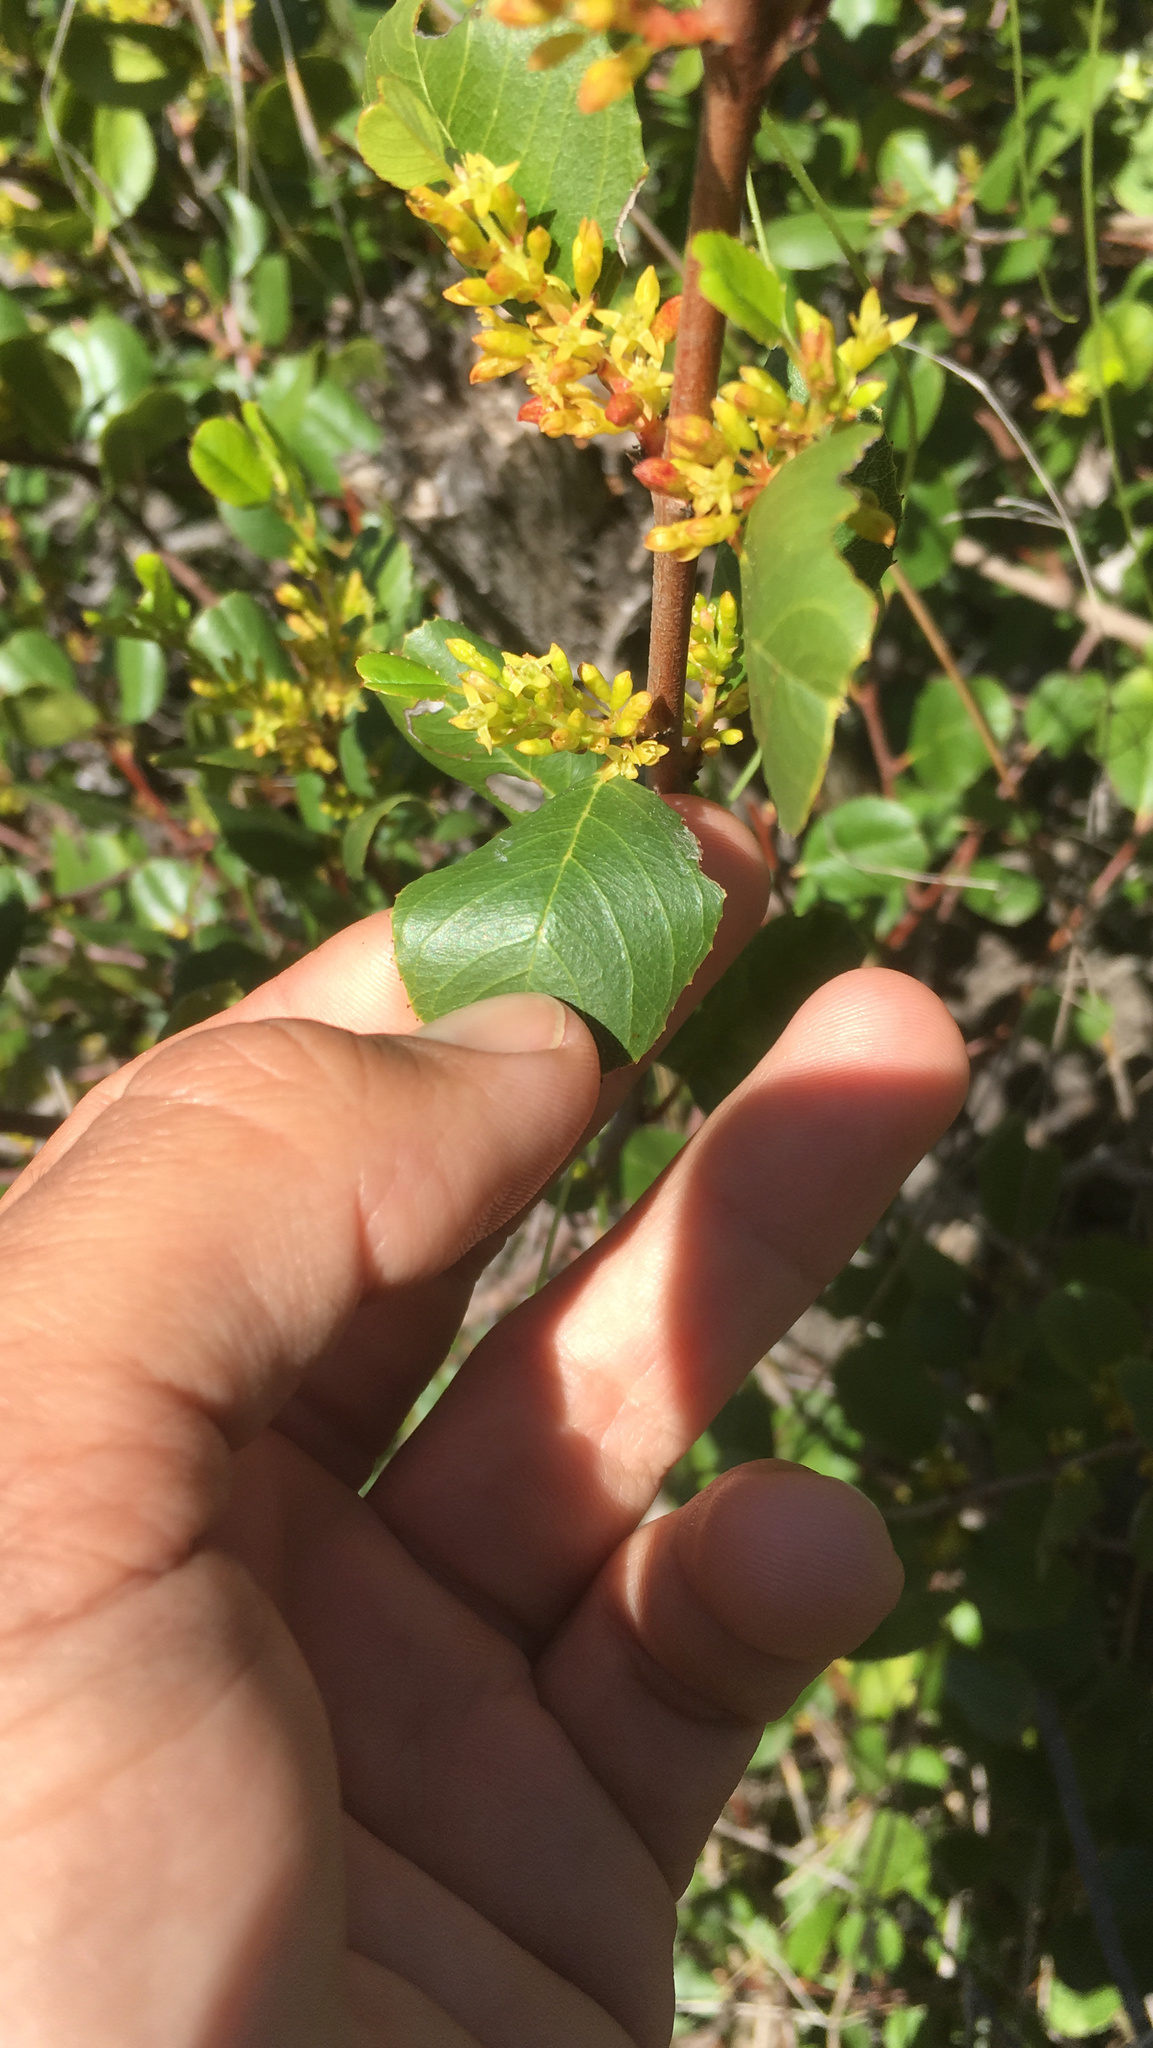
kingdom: Plantae
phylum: Tracheophyta
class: Magnoliopsida
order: Rosales
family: Rhamnaceae
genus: Endotropis
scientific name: Endotropis crocea
